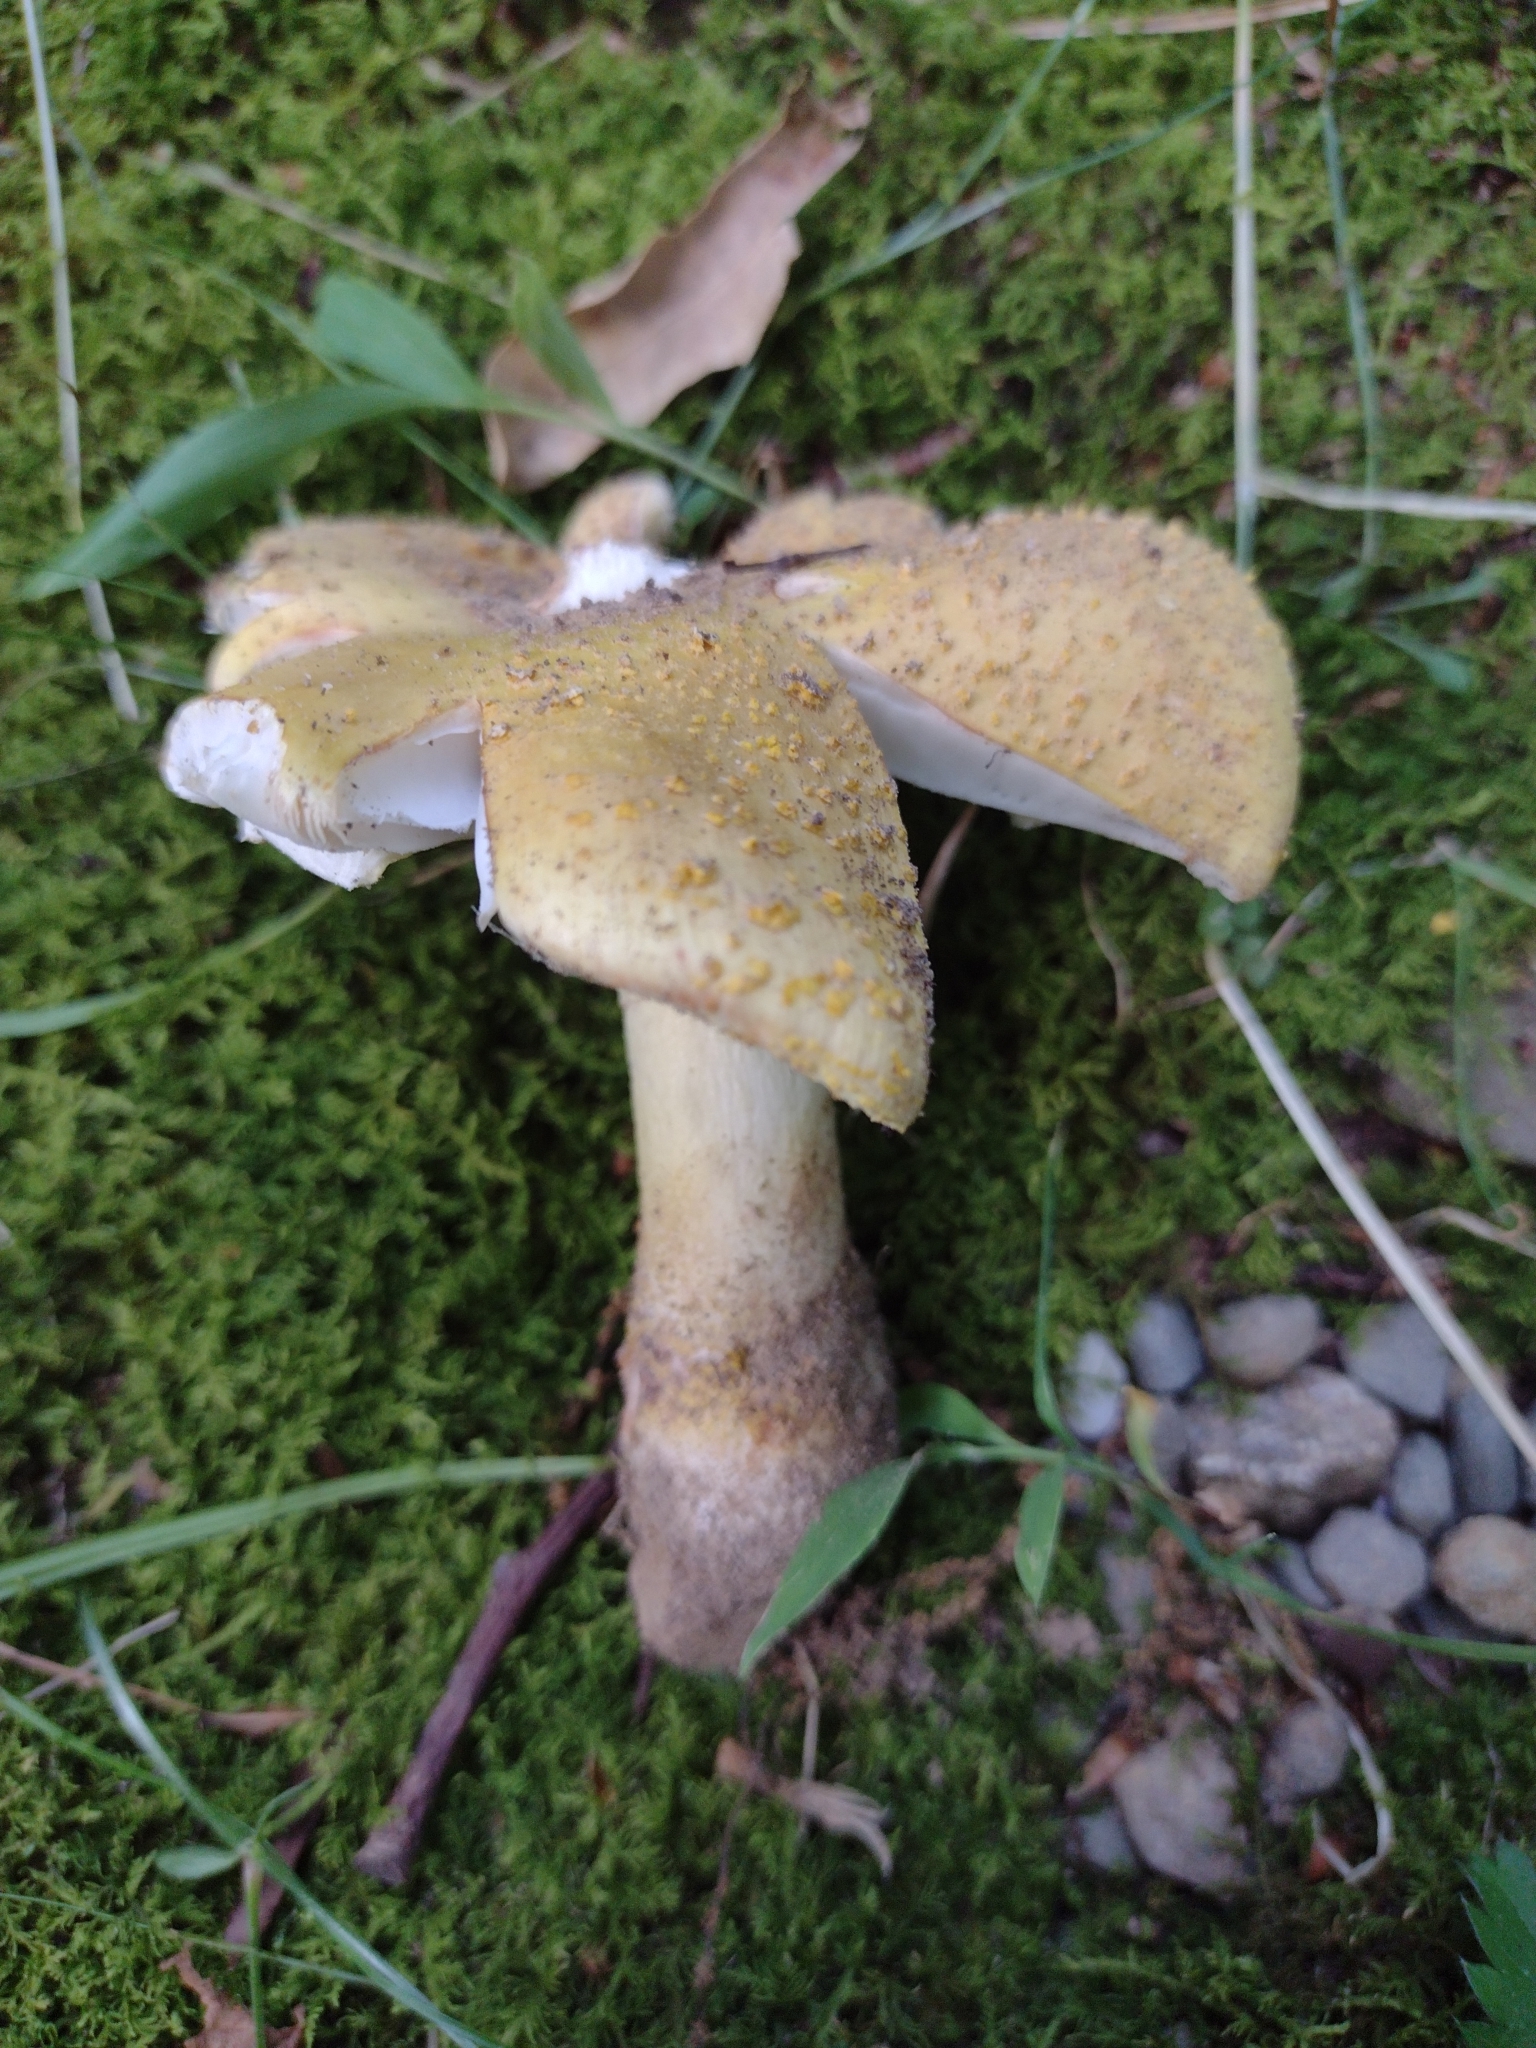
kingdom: Fungi
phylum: Basidiomycota
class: Agaricomycetes
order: Agaricales
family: Amanitaceae
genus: Amanita
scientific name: Amanita flavorubens
